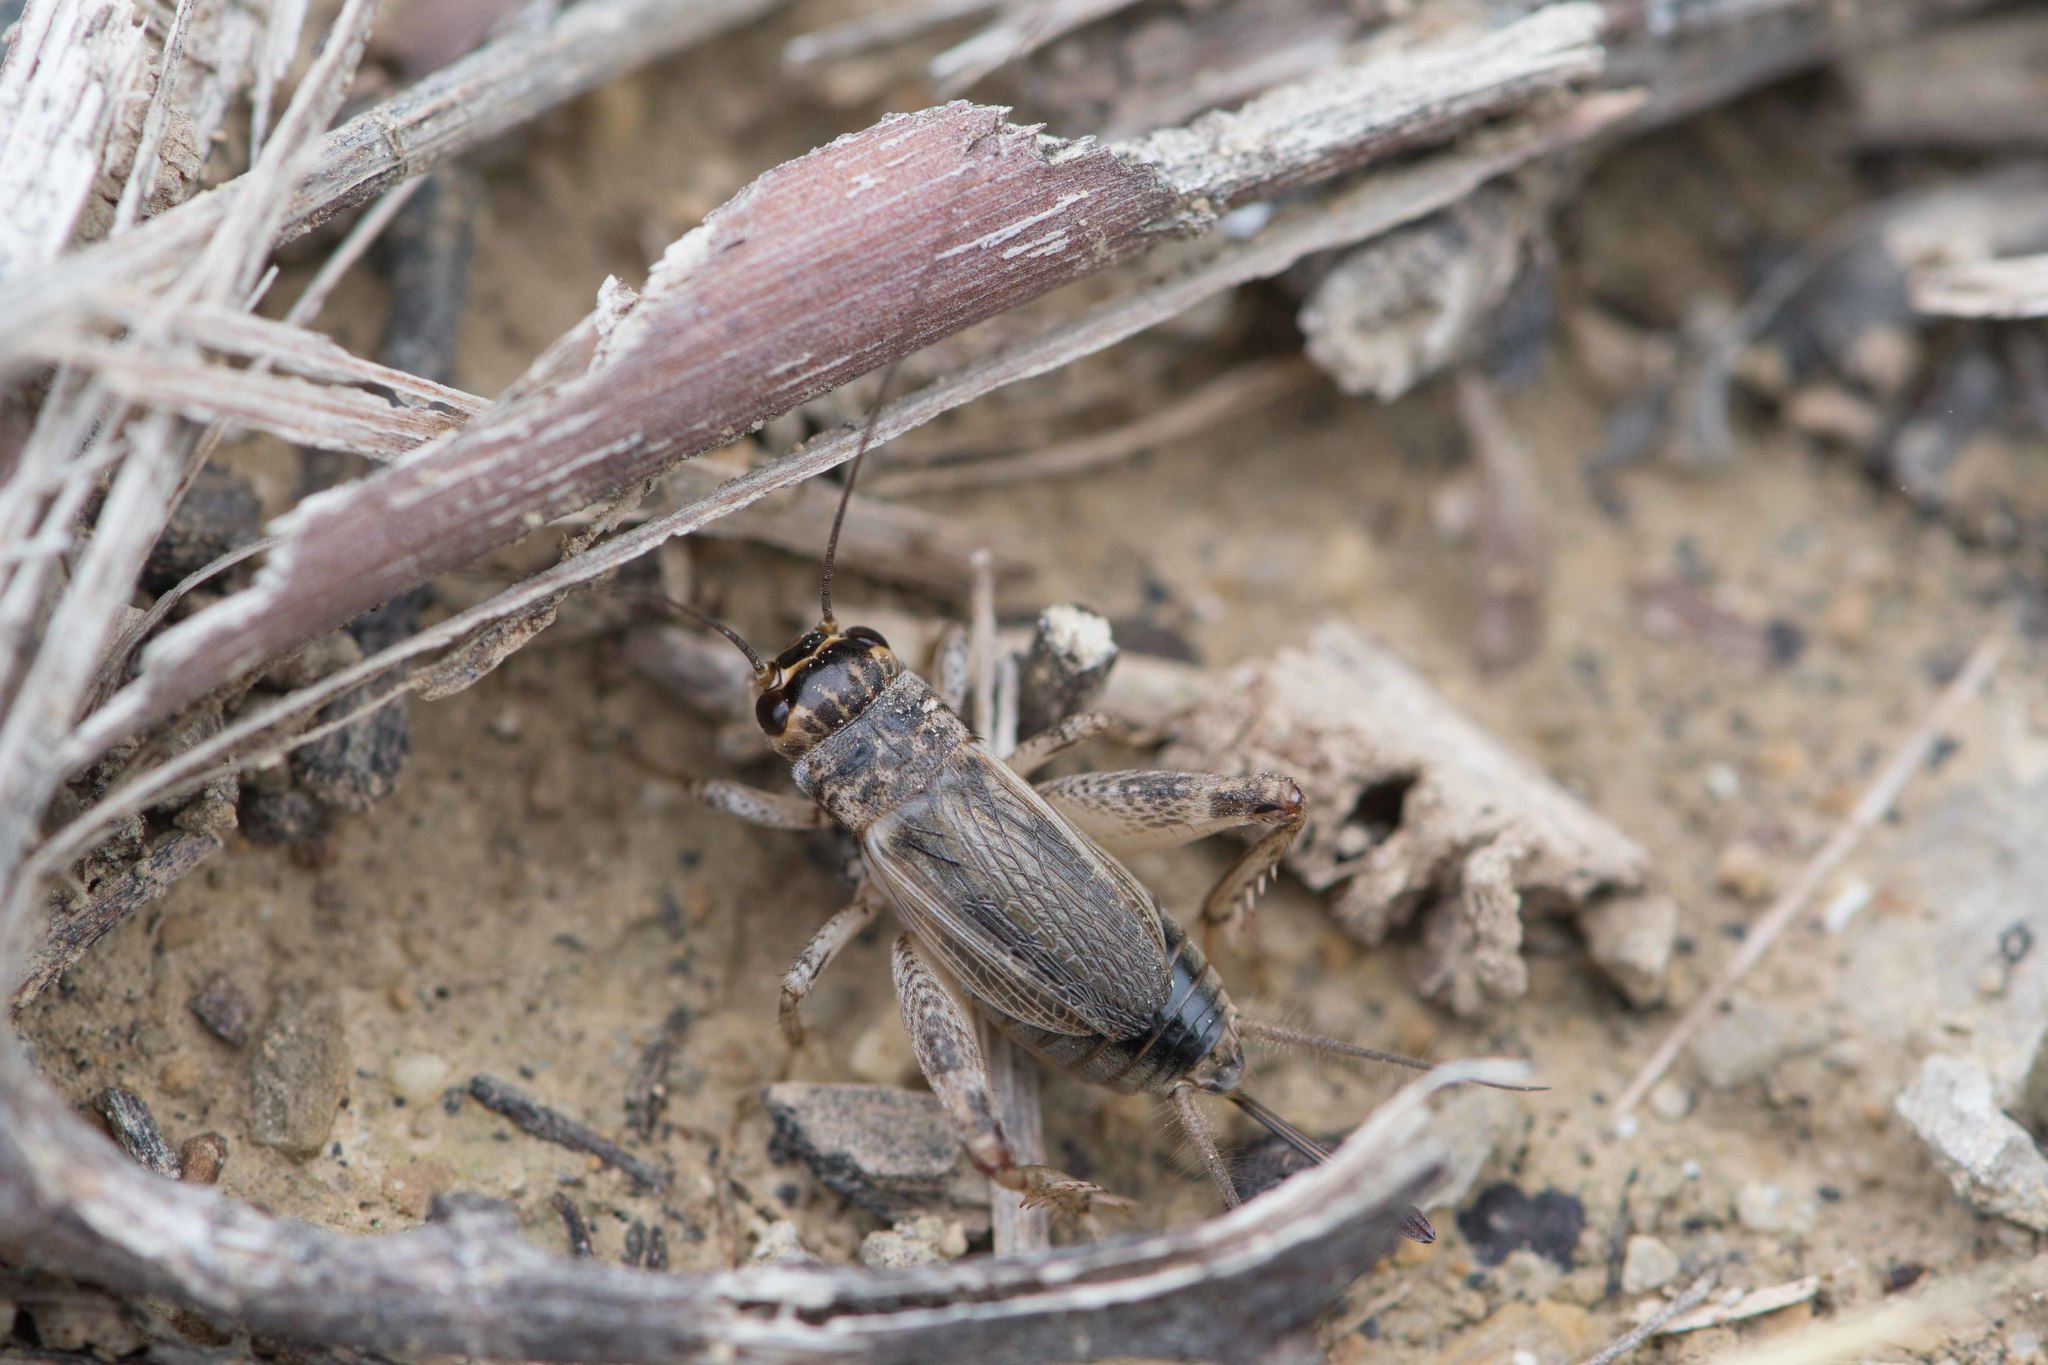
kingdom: Animalia
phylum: Arthropoda
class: Insecta
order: Orthoptera
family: Gryllidae
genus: Eumodicogryllus
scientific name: Eumodicogryllus bordigalensis
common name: Bordeaux cricket
